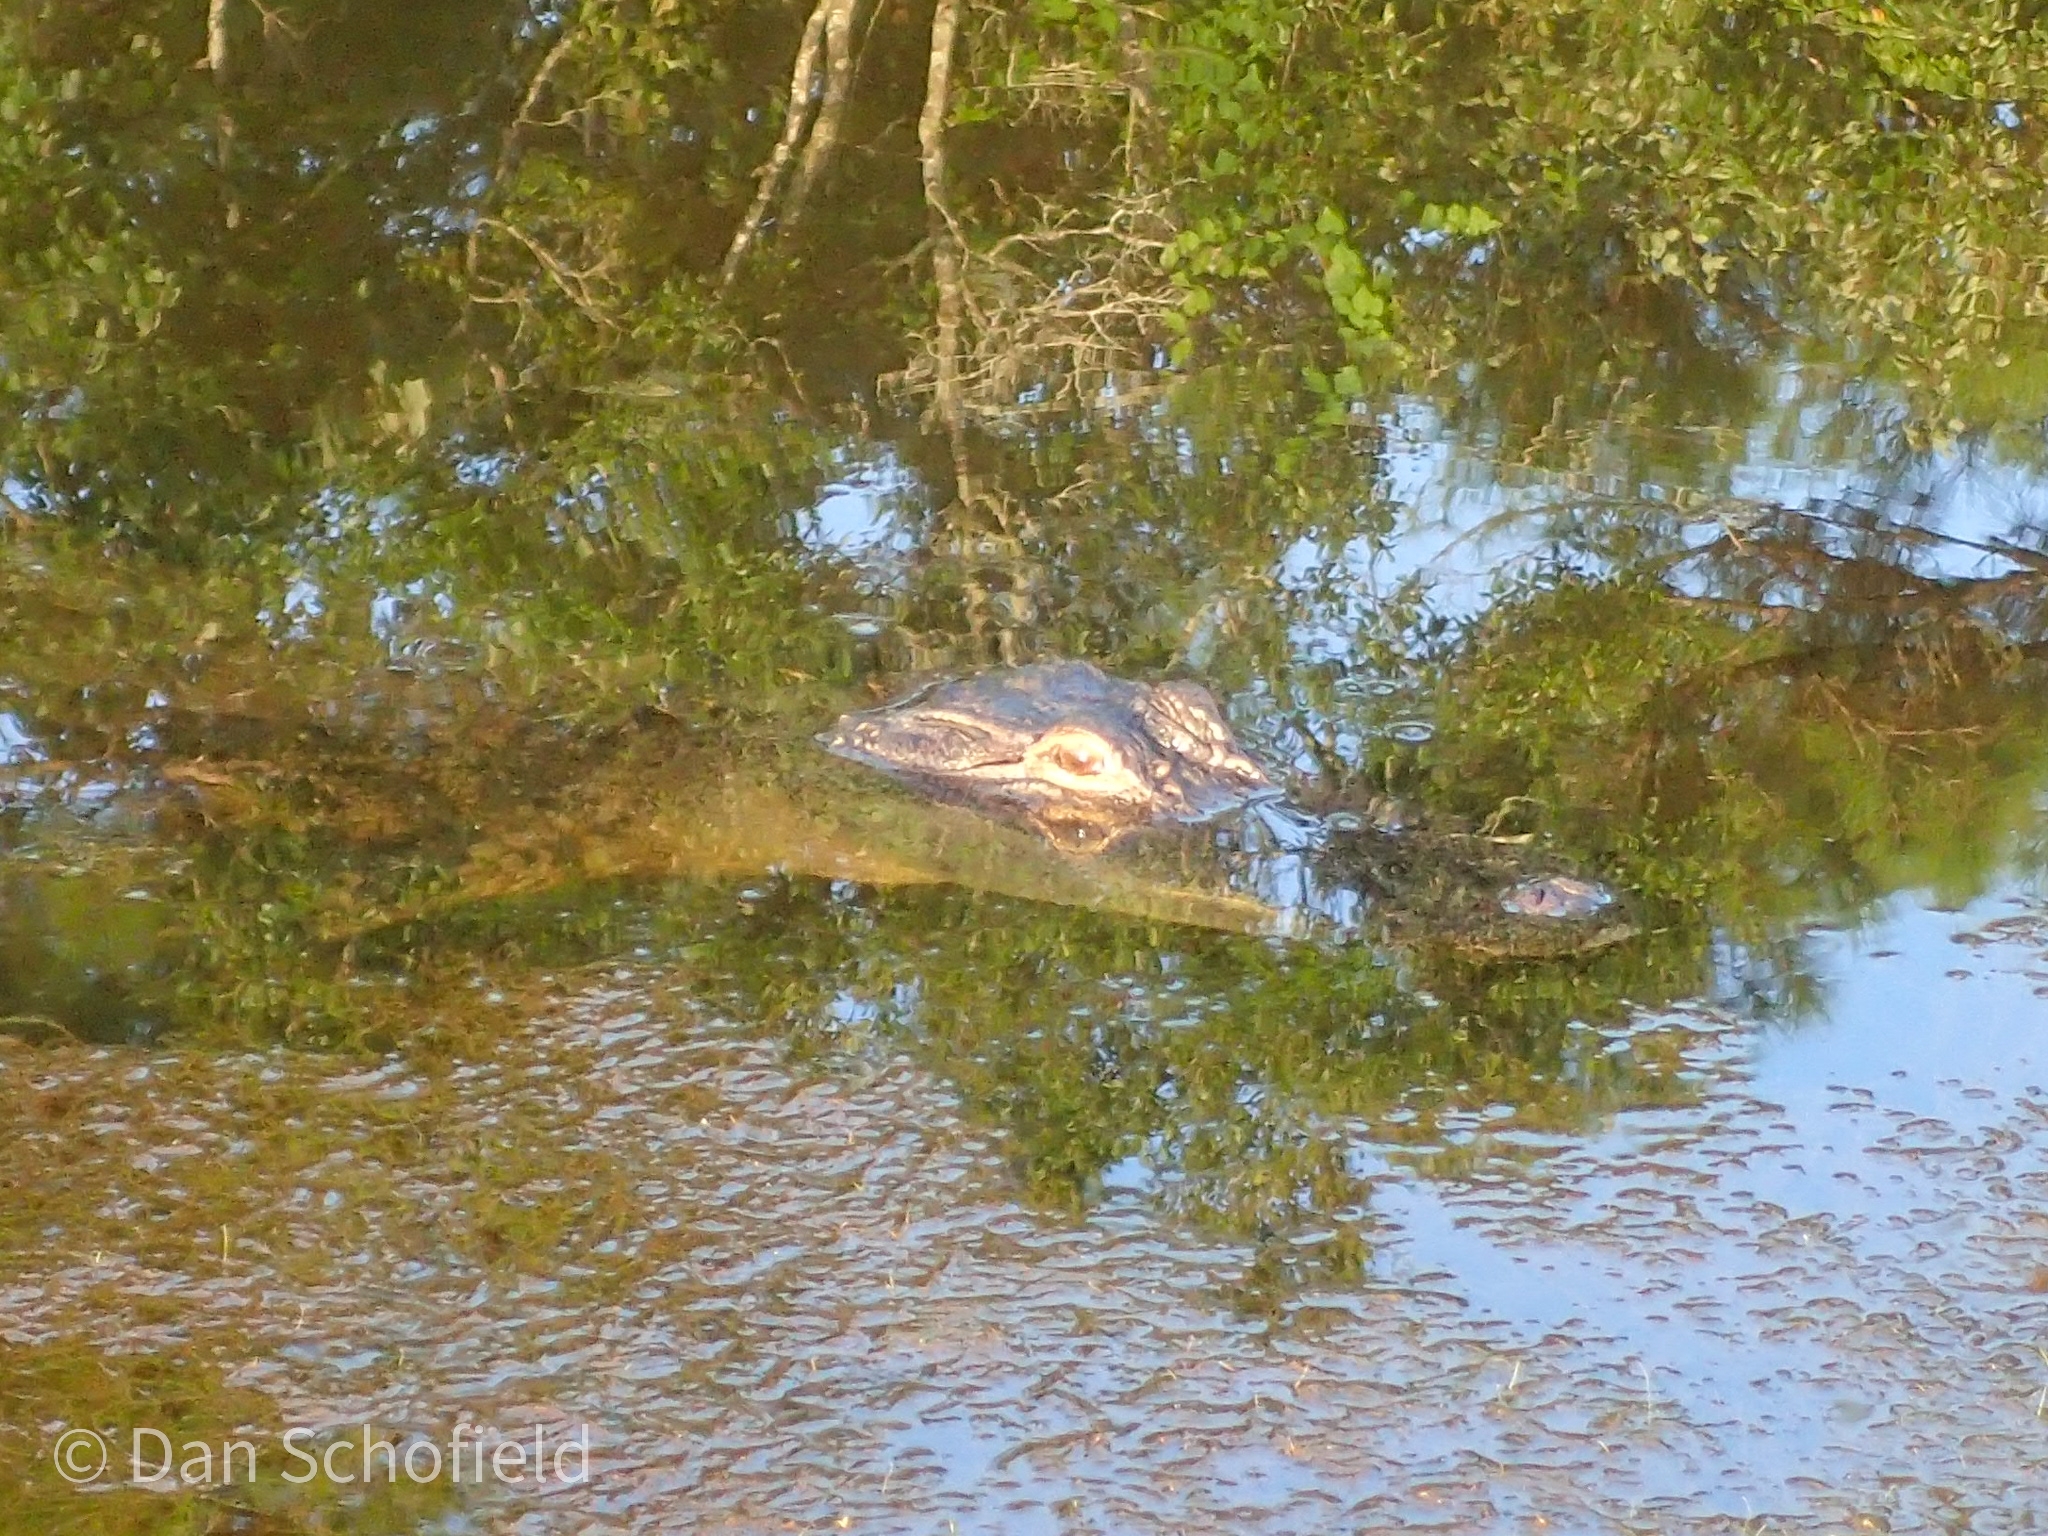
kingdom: Animalia
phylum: Chordata
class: Crocodylia
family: Alligatoridae
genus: Alligator
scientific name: Alligator mississippiensis
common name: American alligator
